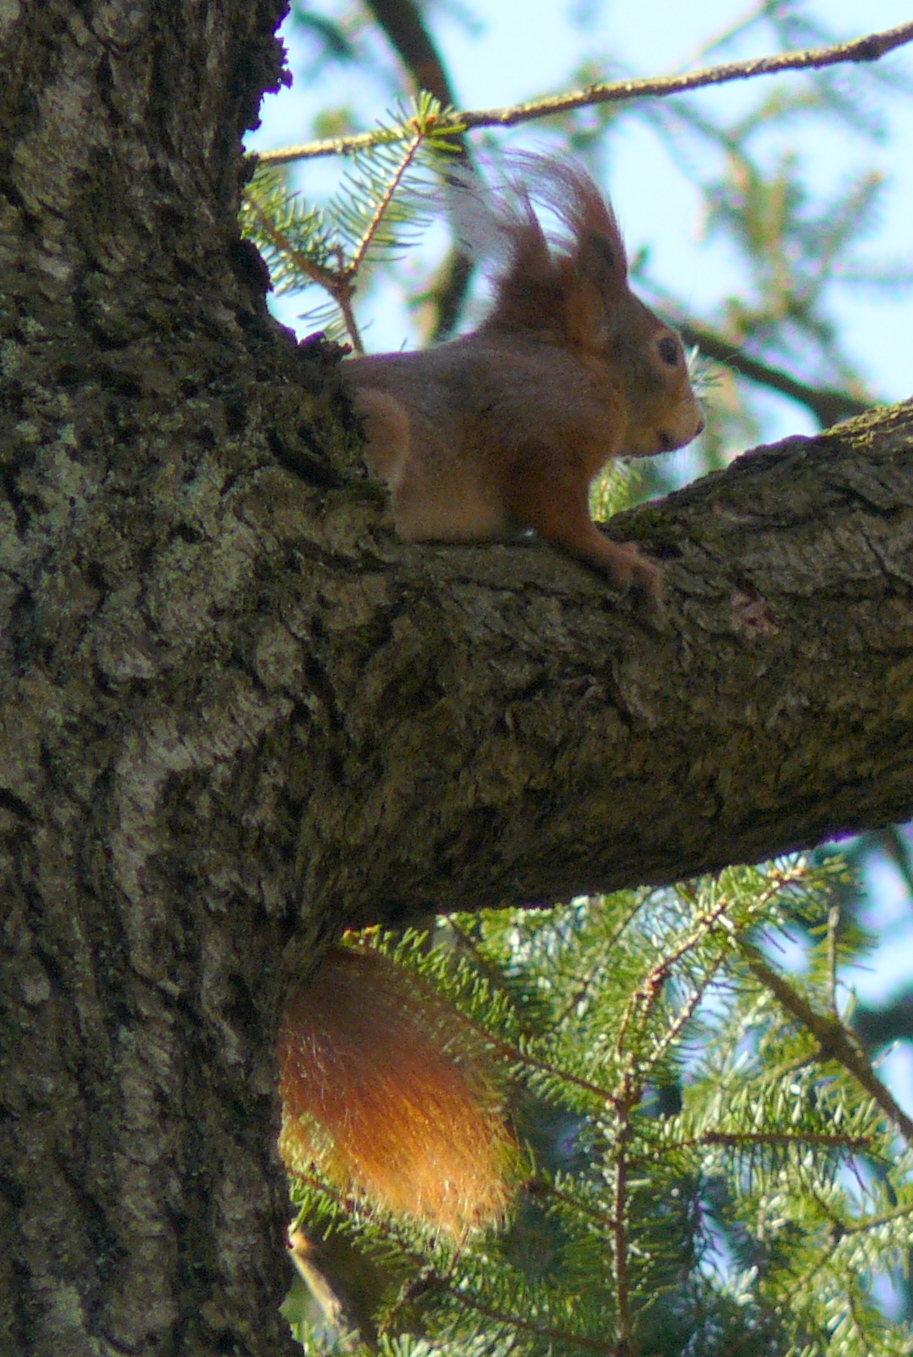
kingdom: Animalia
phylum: Chordata
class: Mammalia
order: Rodentia
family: Sciuridae
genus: Sciurus
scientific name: Sciurus vulgaris
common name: Eurasian red squirrel
